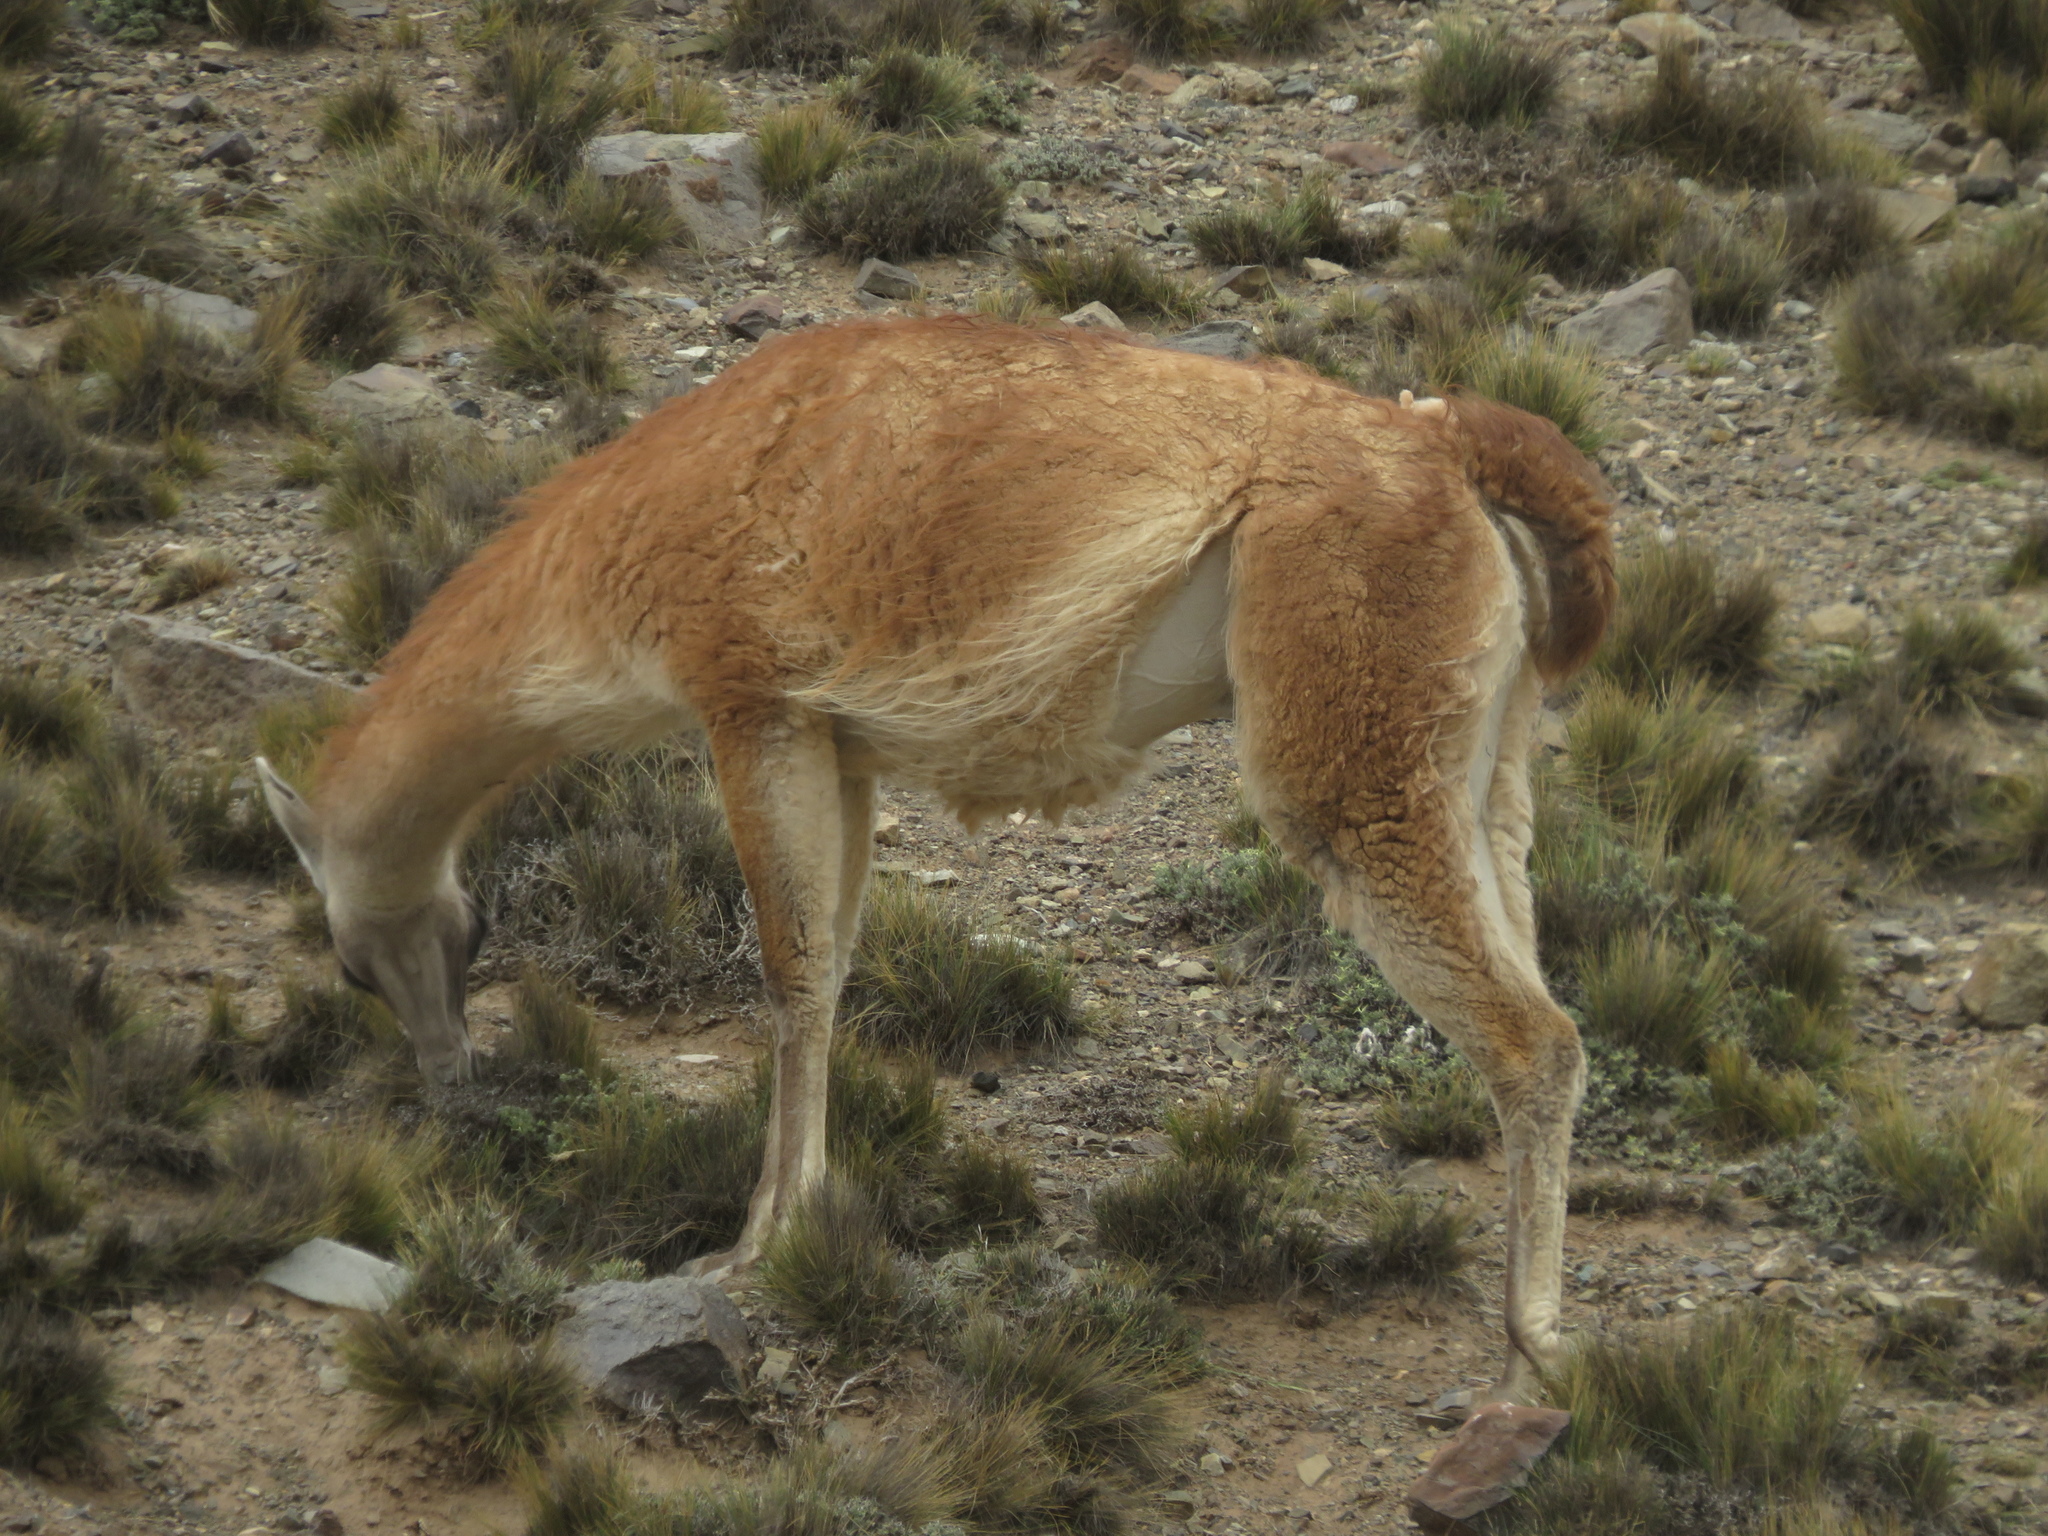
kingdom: Animalia
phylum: Chordata
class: Mammalia
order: Artiodactyla
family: Camelidae
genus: Lama
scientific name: Lama glama
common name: Llama
